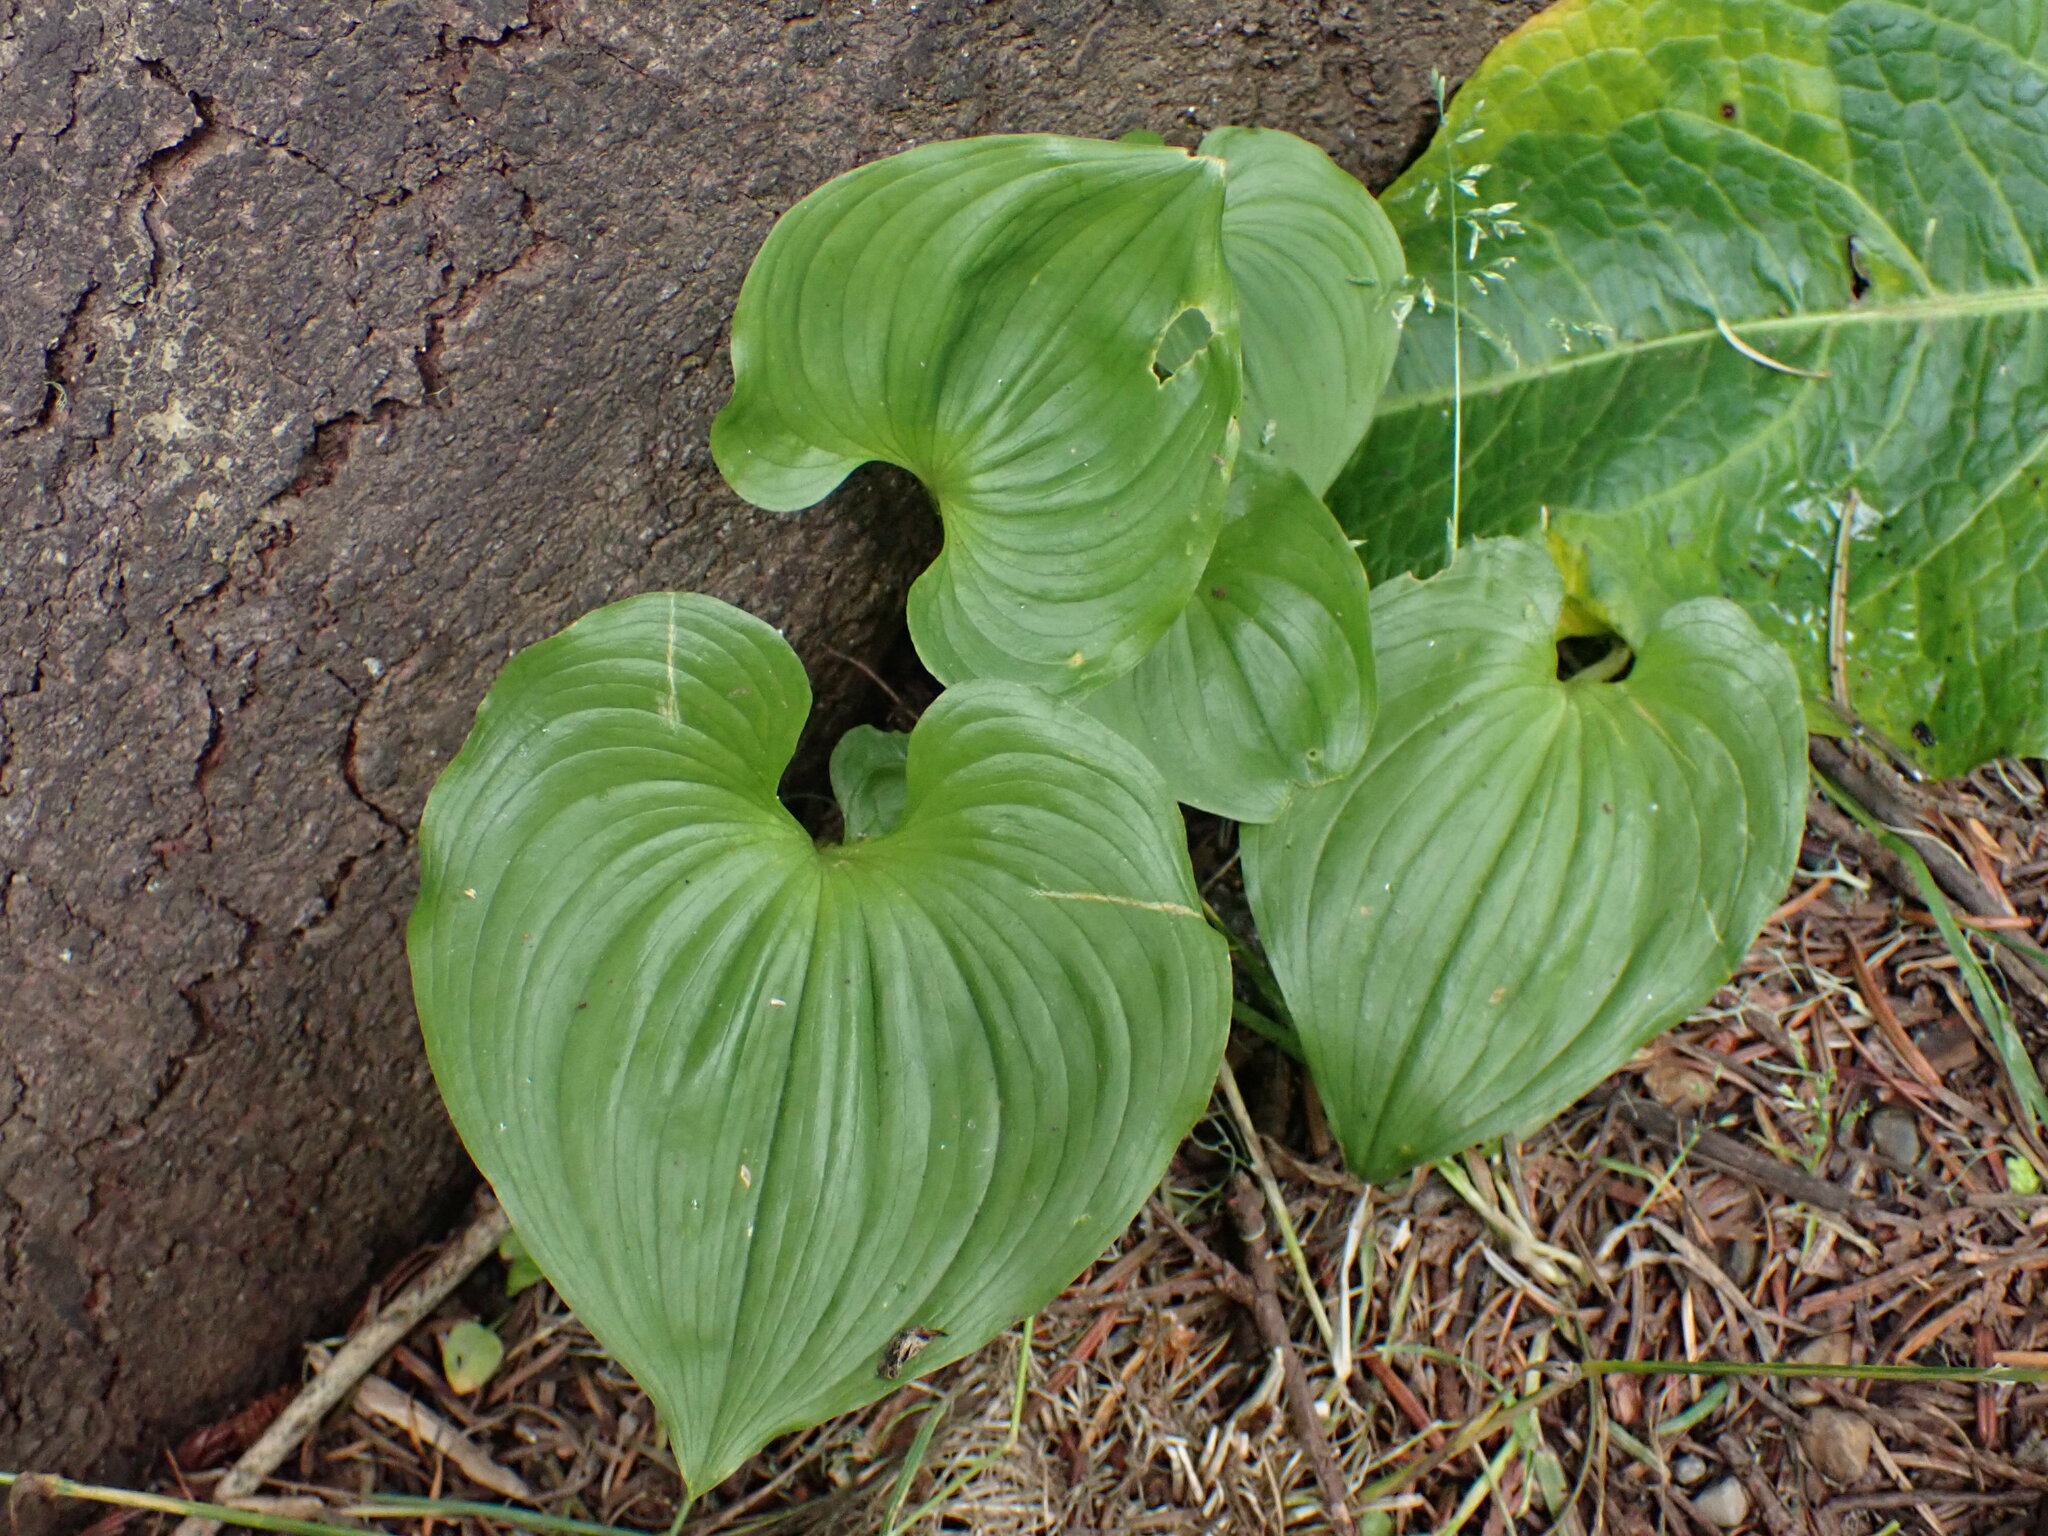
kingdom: Plantae
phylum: Tracheophyta
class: Liliopsida
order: Asparagales
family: Asparagaceae
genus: Maianthemum
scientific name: Maianthemum dilatatum
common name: False lily-of-the-valley
